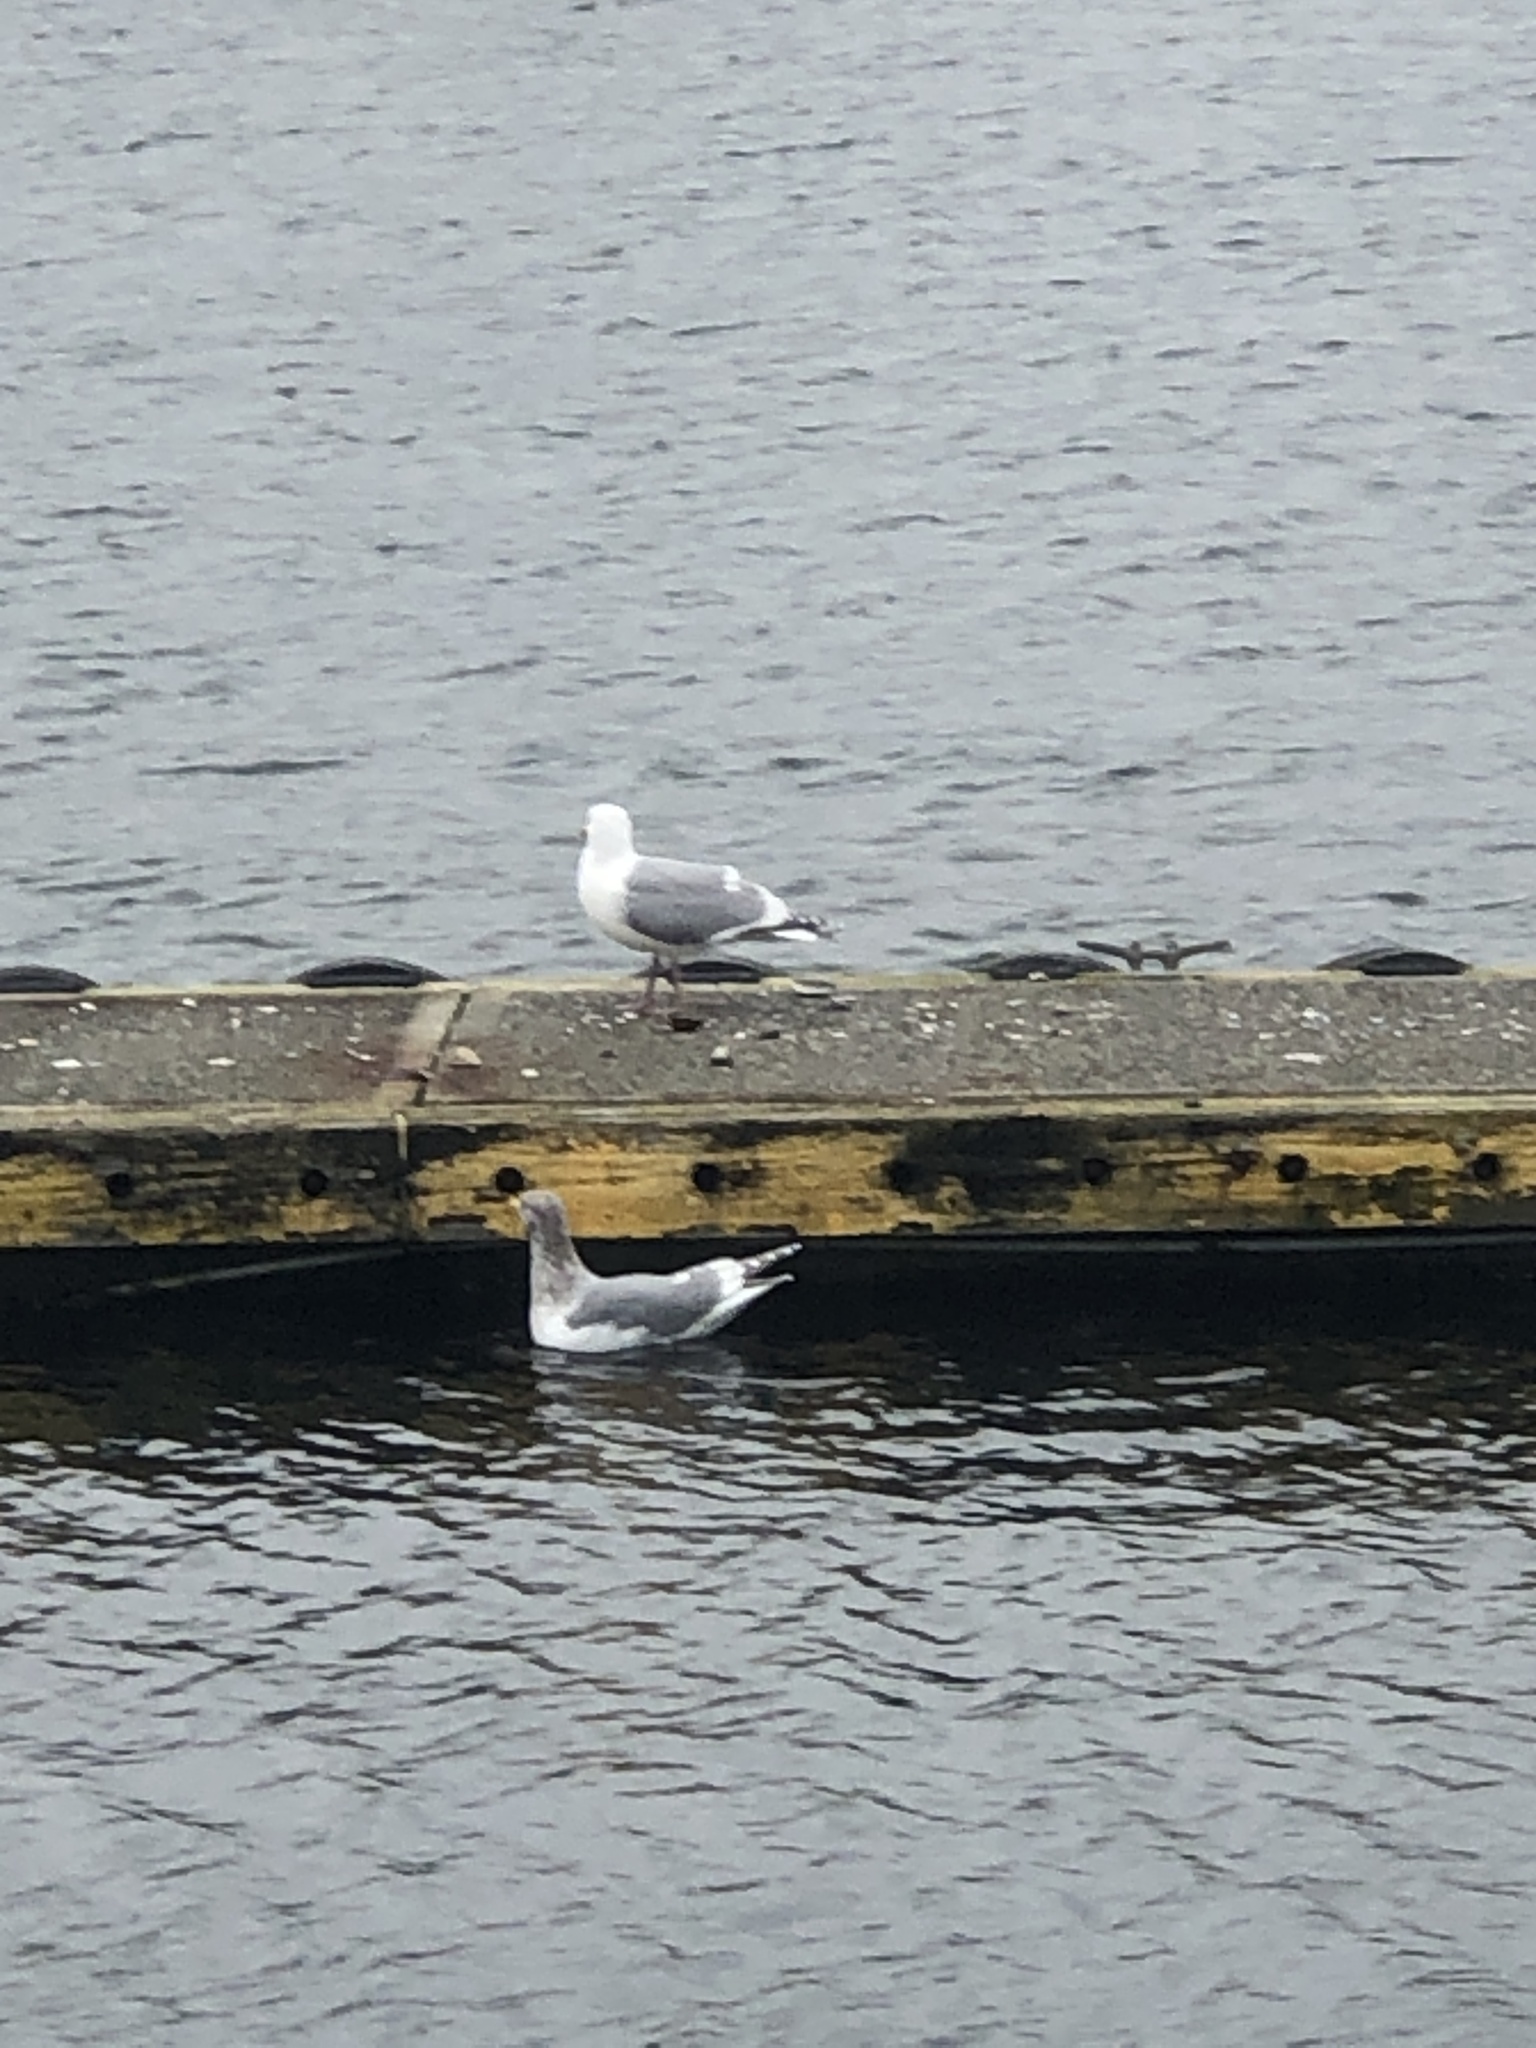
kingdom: Animalia
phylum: Chordata
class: Aves
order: Charadriiformes
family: Laridae
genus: Larus
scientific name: Larus
